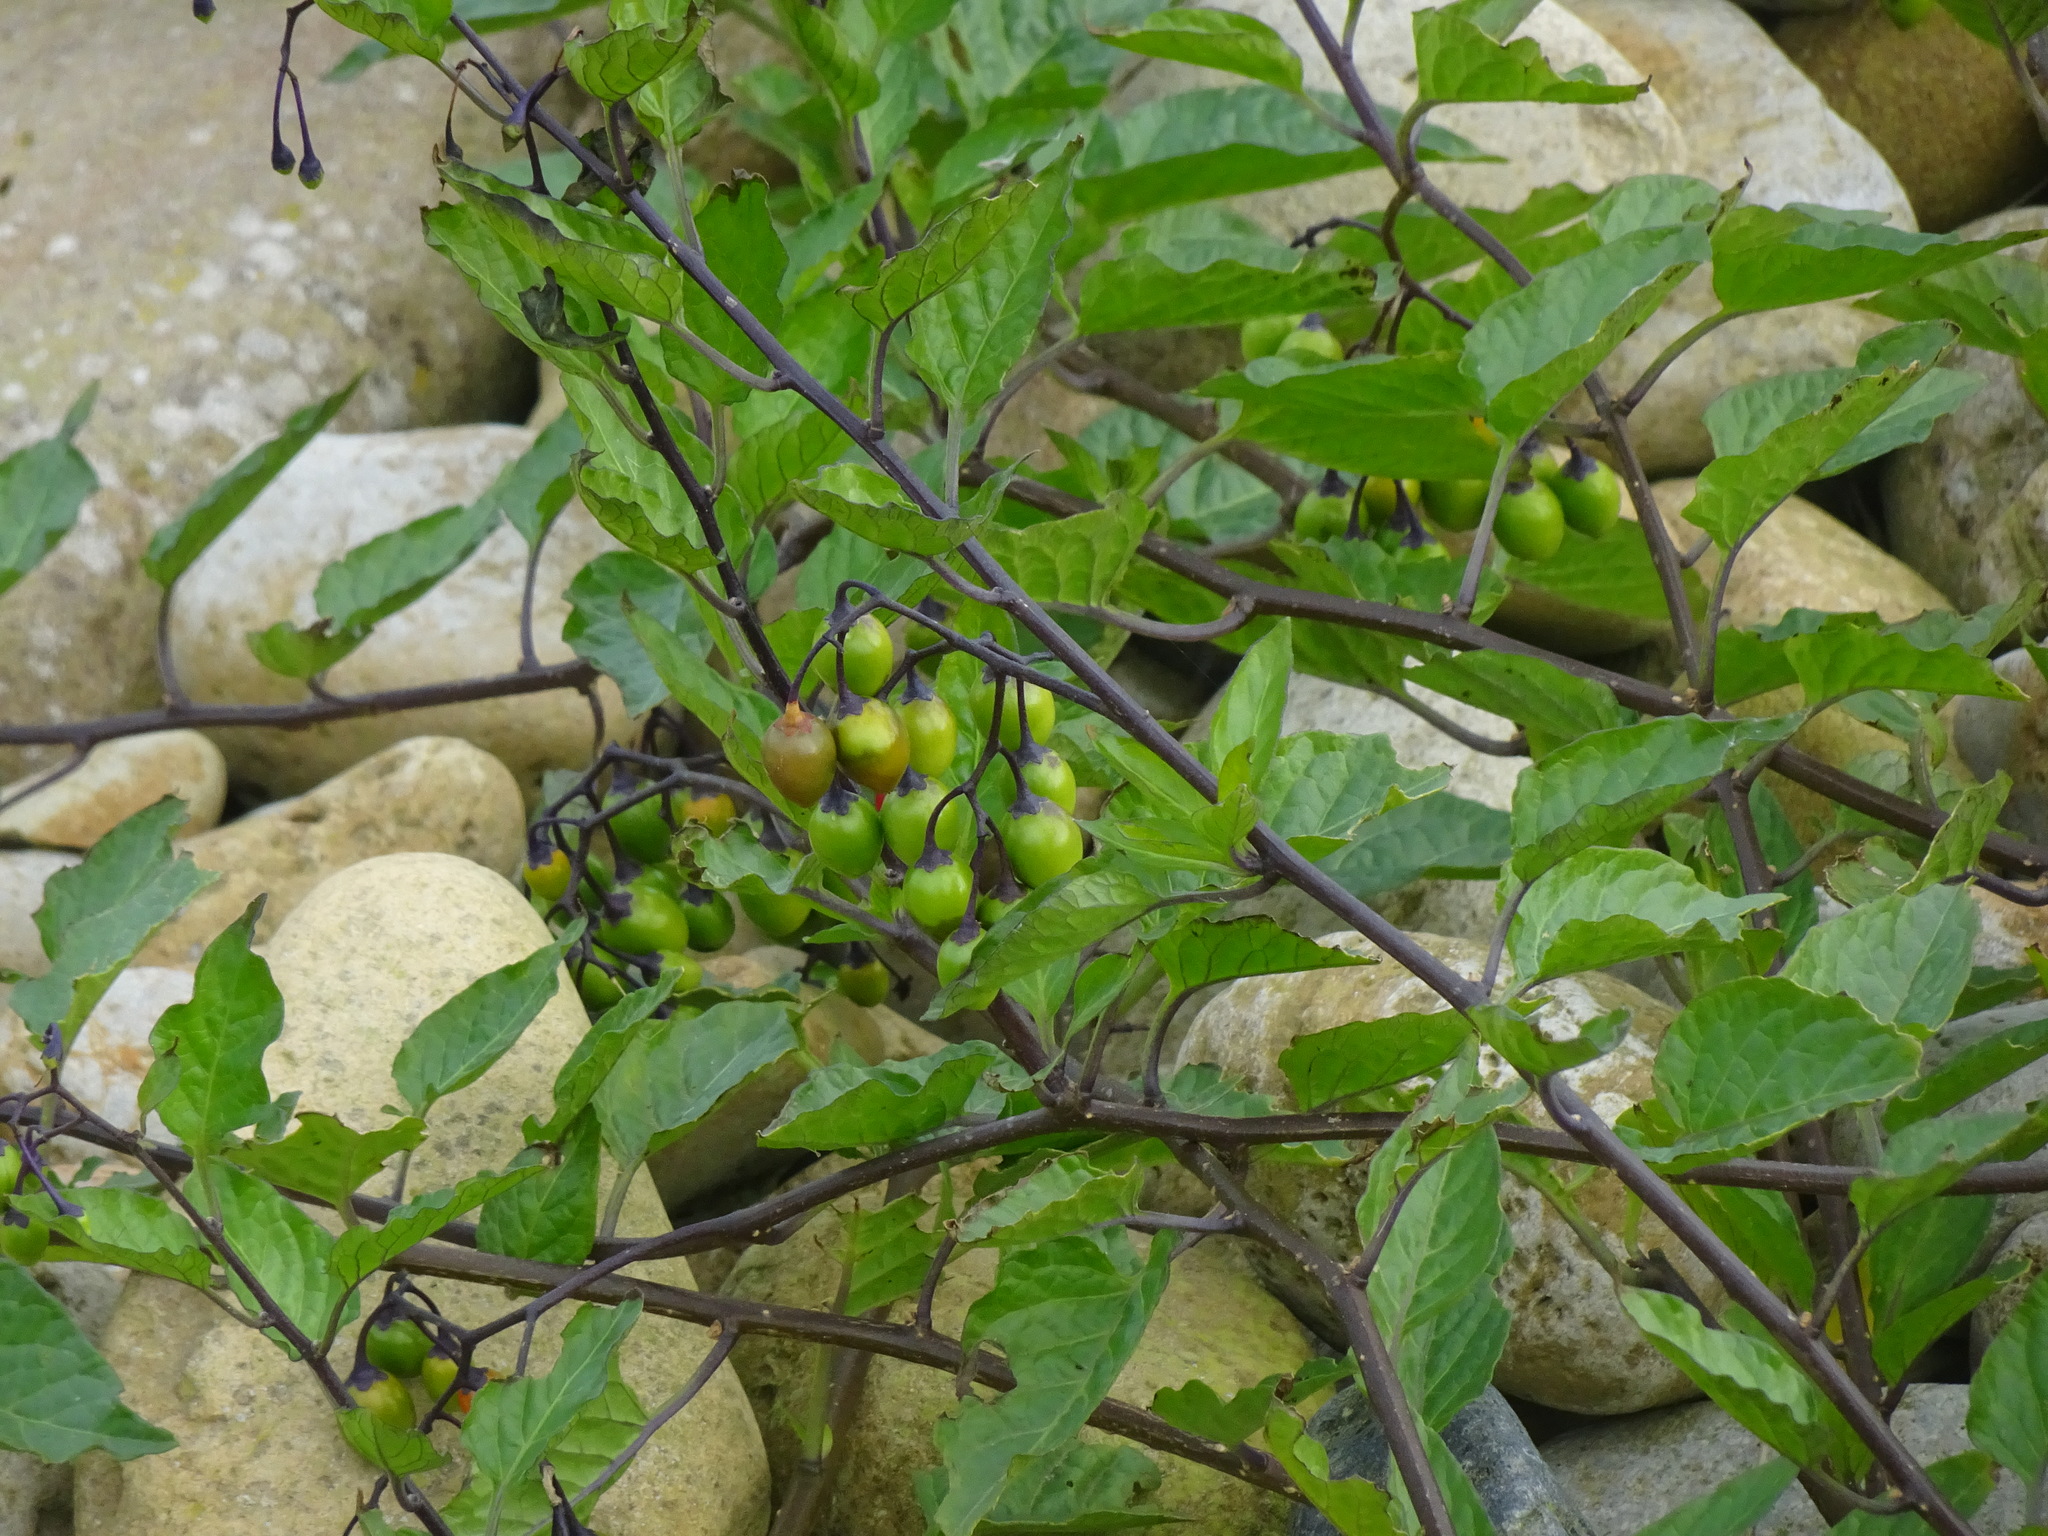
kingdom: Plantae
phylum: Tracheophyta
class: Magnoliopsida
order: Solanales
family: Solanaceae
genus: Solanum
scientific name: Solanum dulcamara
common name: Climbing nightshade
